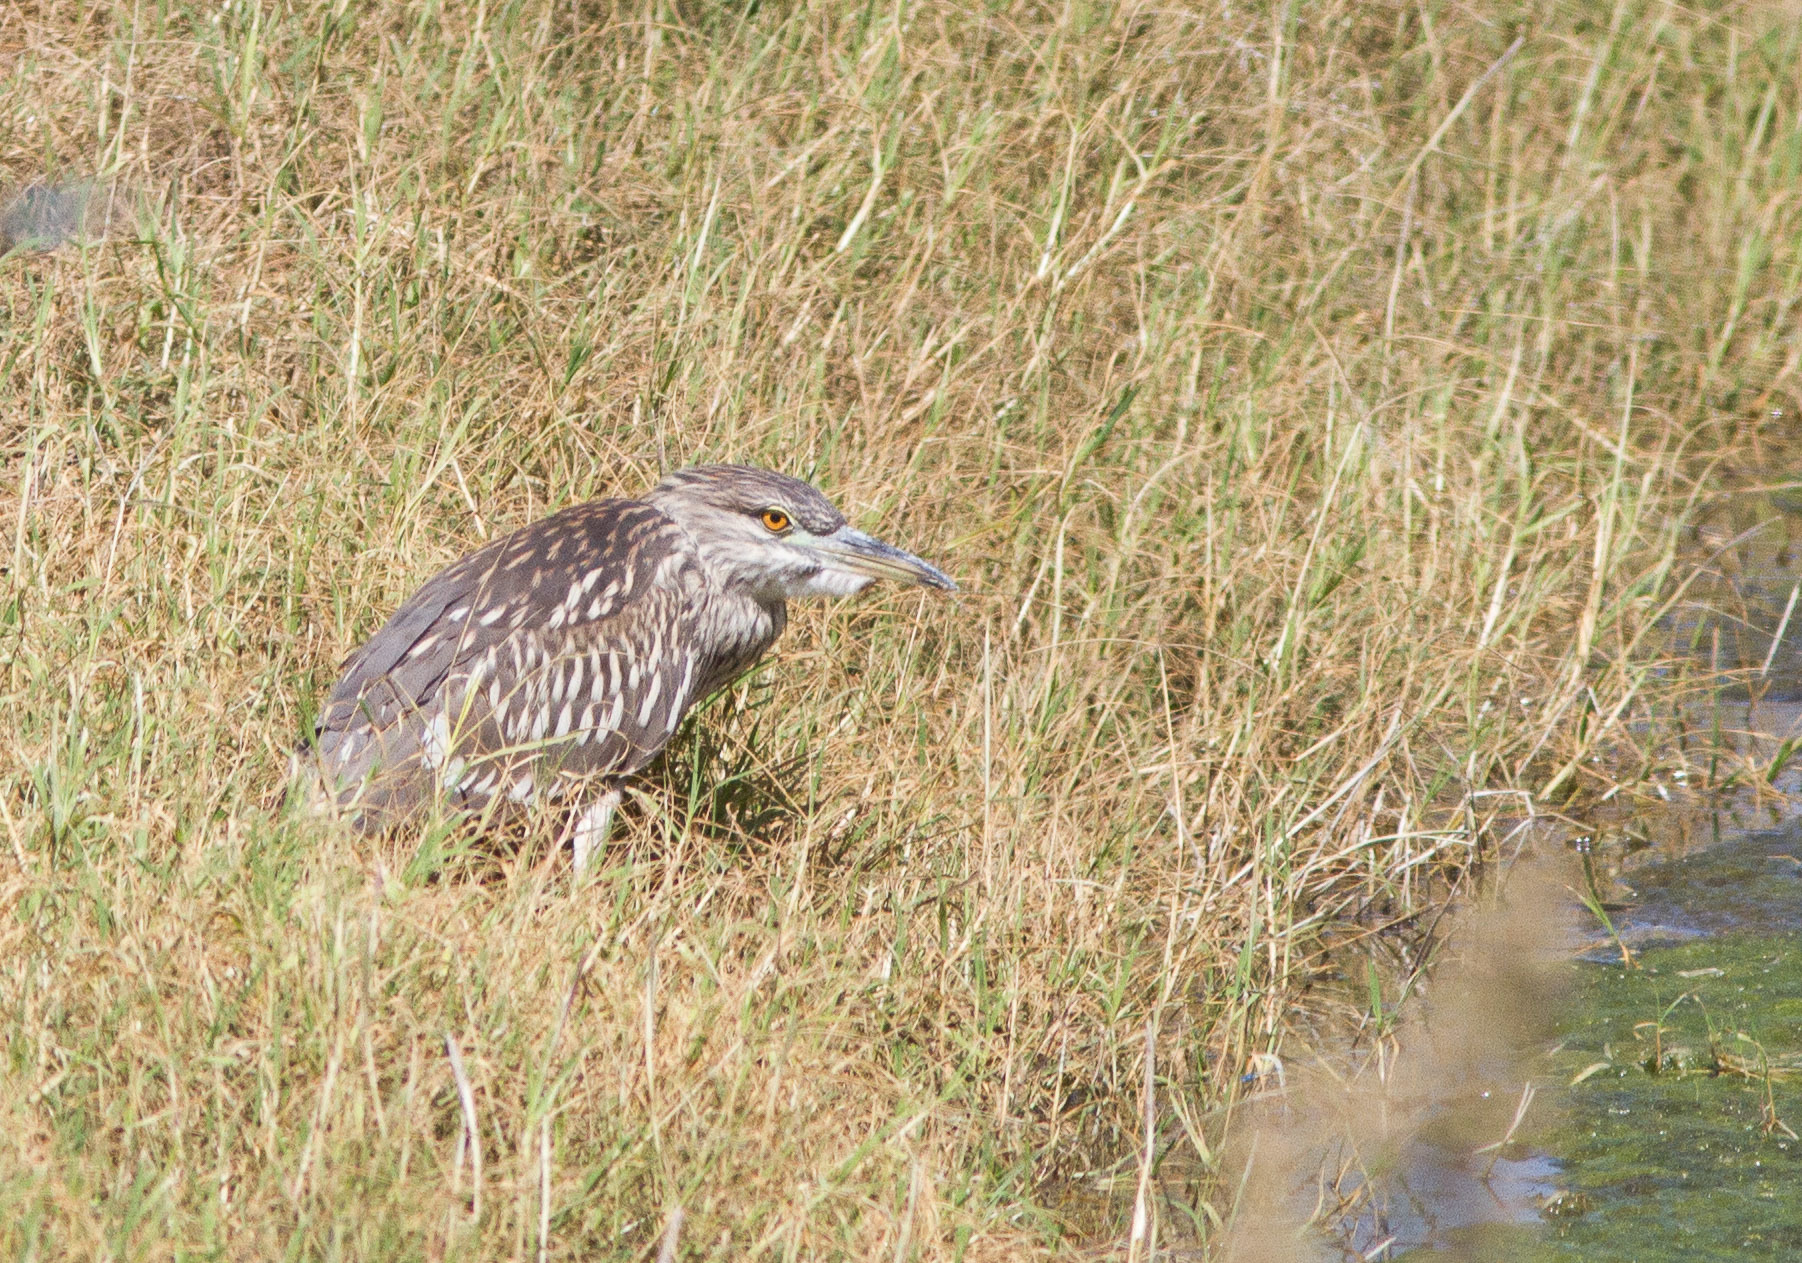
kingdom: Animalia
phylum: Chordata
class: Aves
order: Pelecaniformes
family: Ardeidae
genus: Nycticorax
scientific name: Nycticorax nycticorax
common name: Black-crowned night heron
